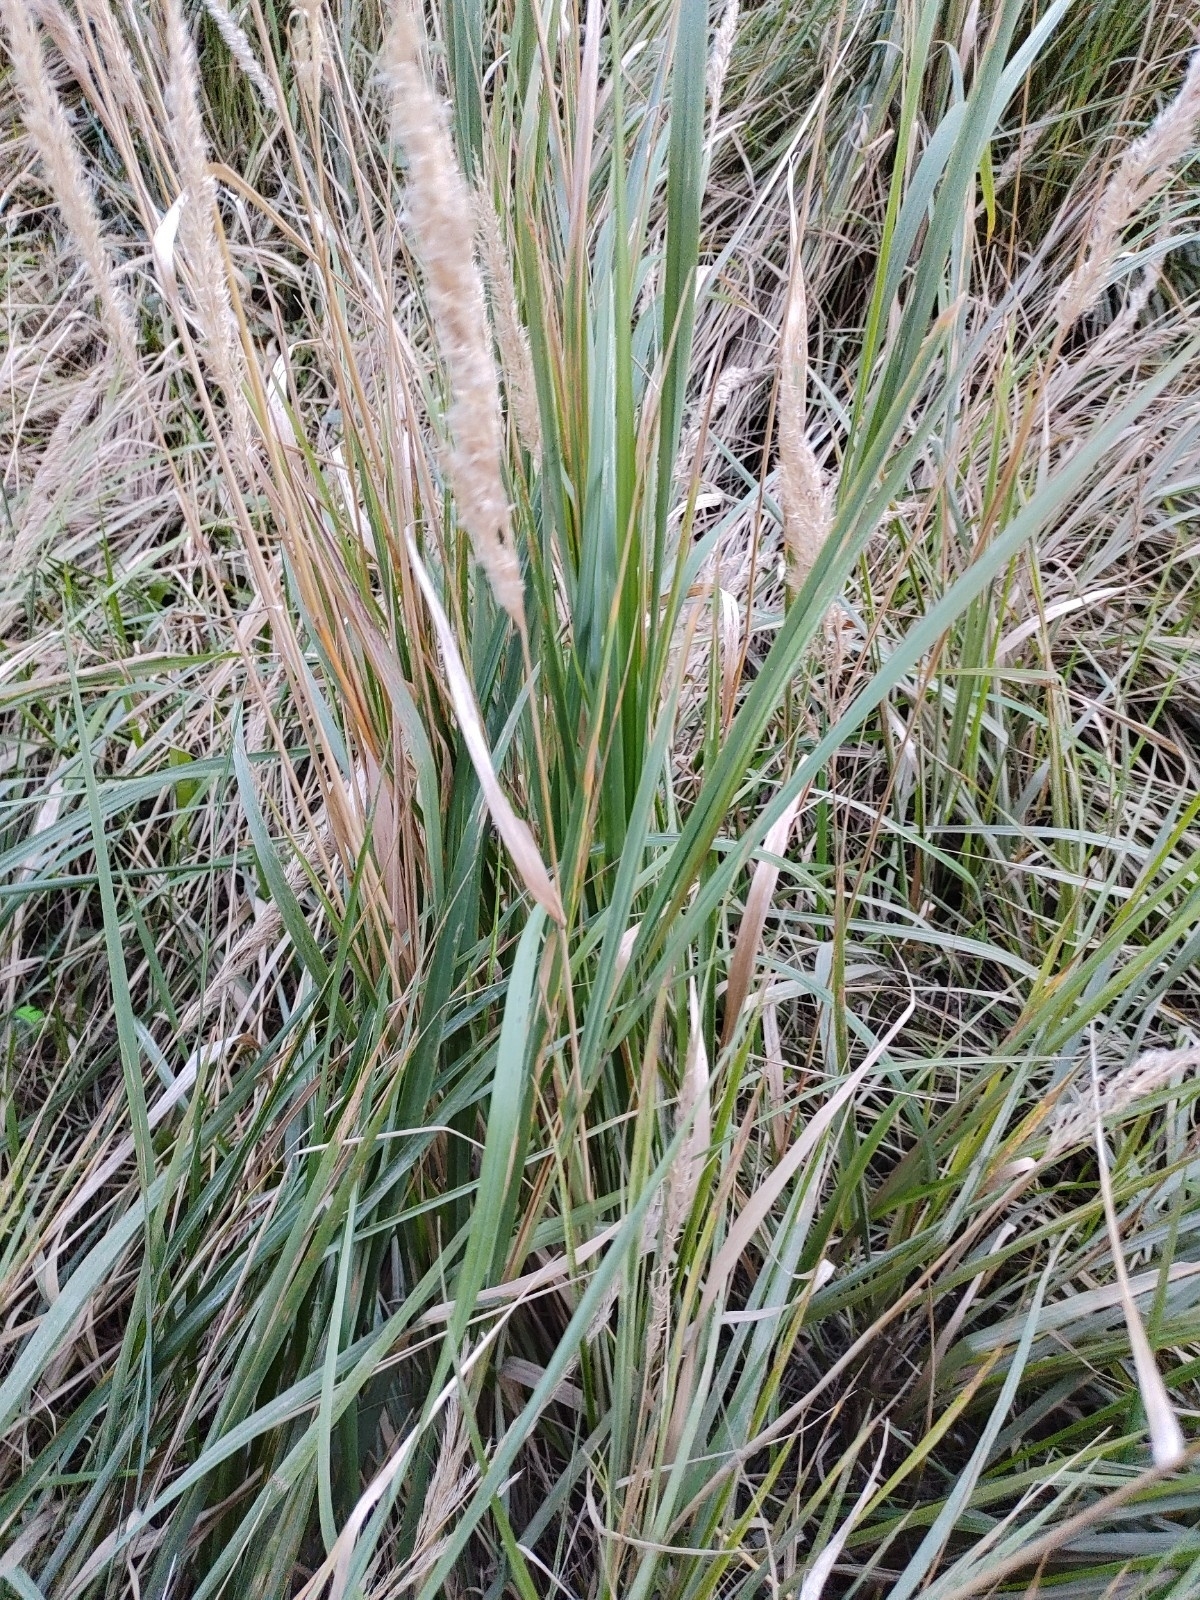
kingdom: Plantae
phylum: Tracheophyta
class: Liliopsida
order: Poales
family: Poaceae
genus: Calamagrostis
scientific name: Calamagrostis epigejos
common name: Wood small-reed
